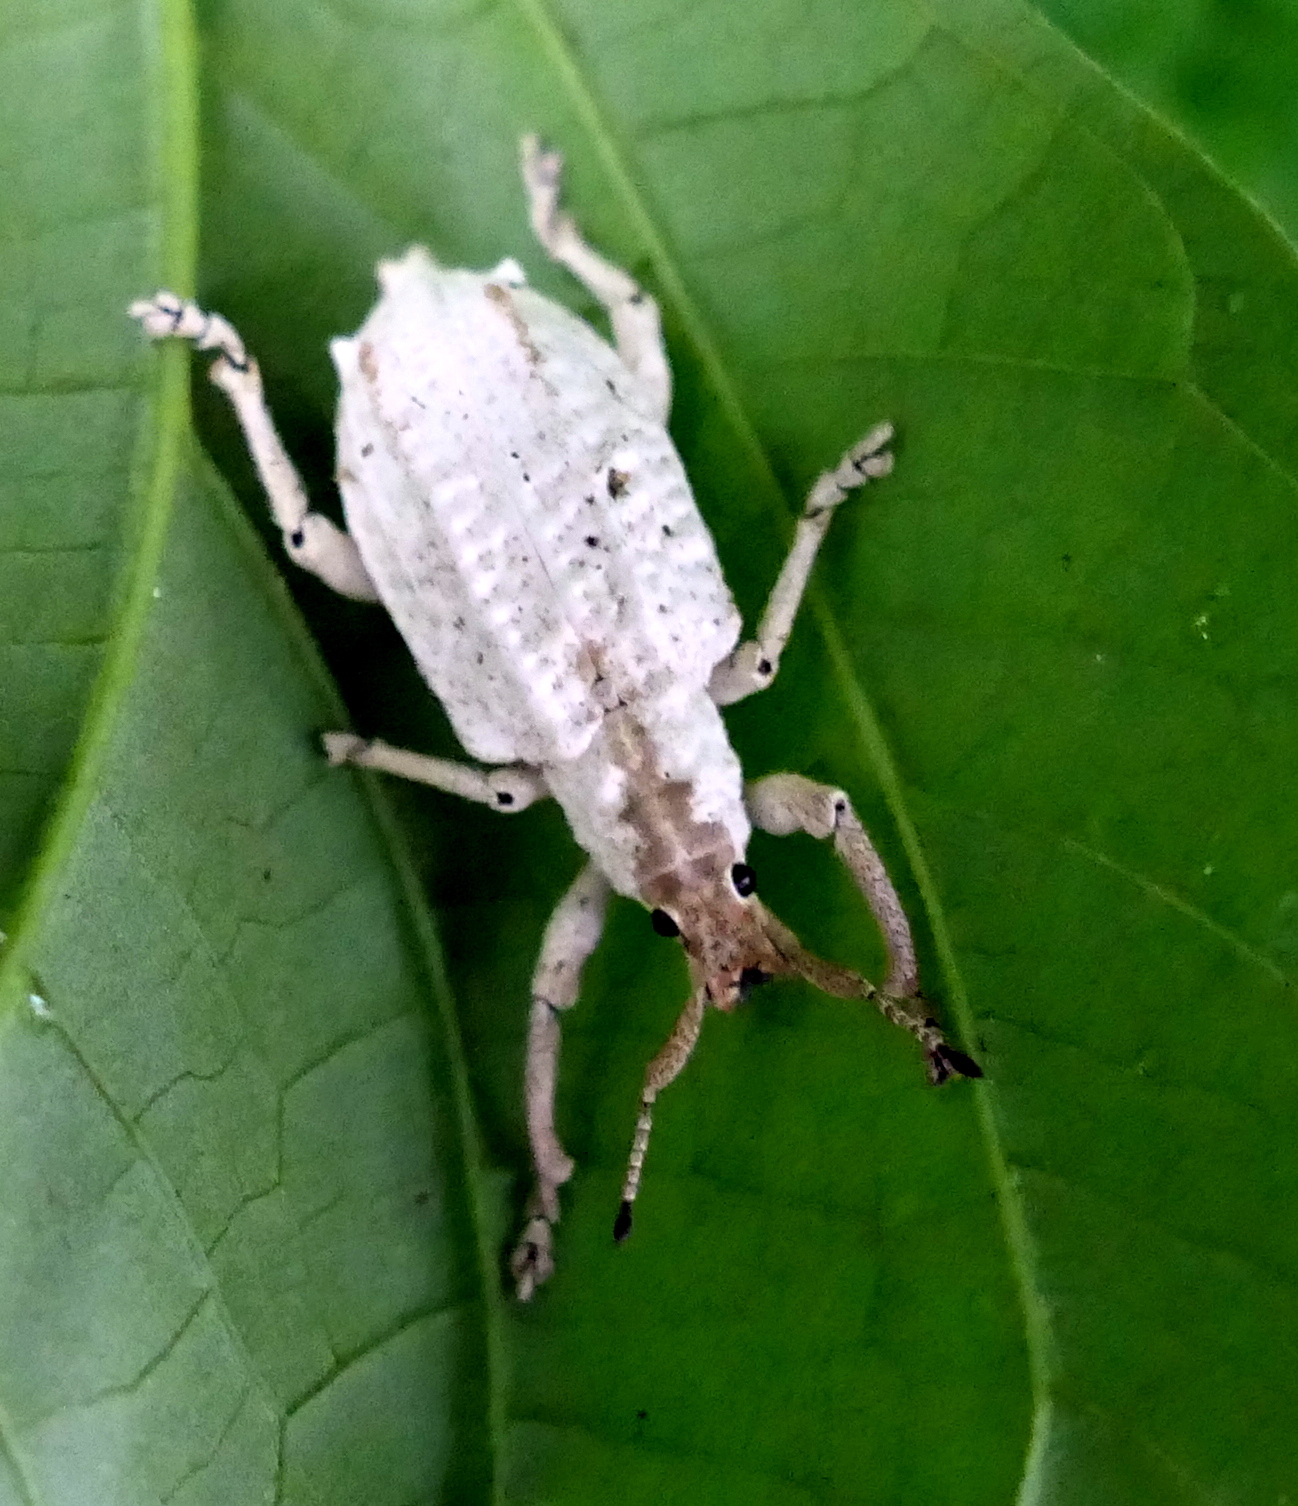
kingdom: Animalia
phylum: Arthropoda
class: Insecta
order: Coleoptera
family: Curculionidae
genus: Compsus
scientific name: Compsus niveus
